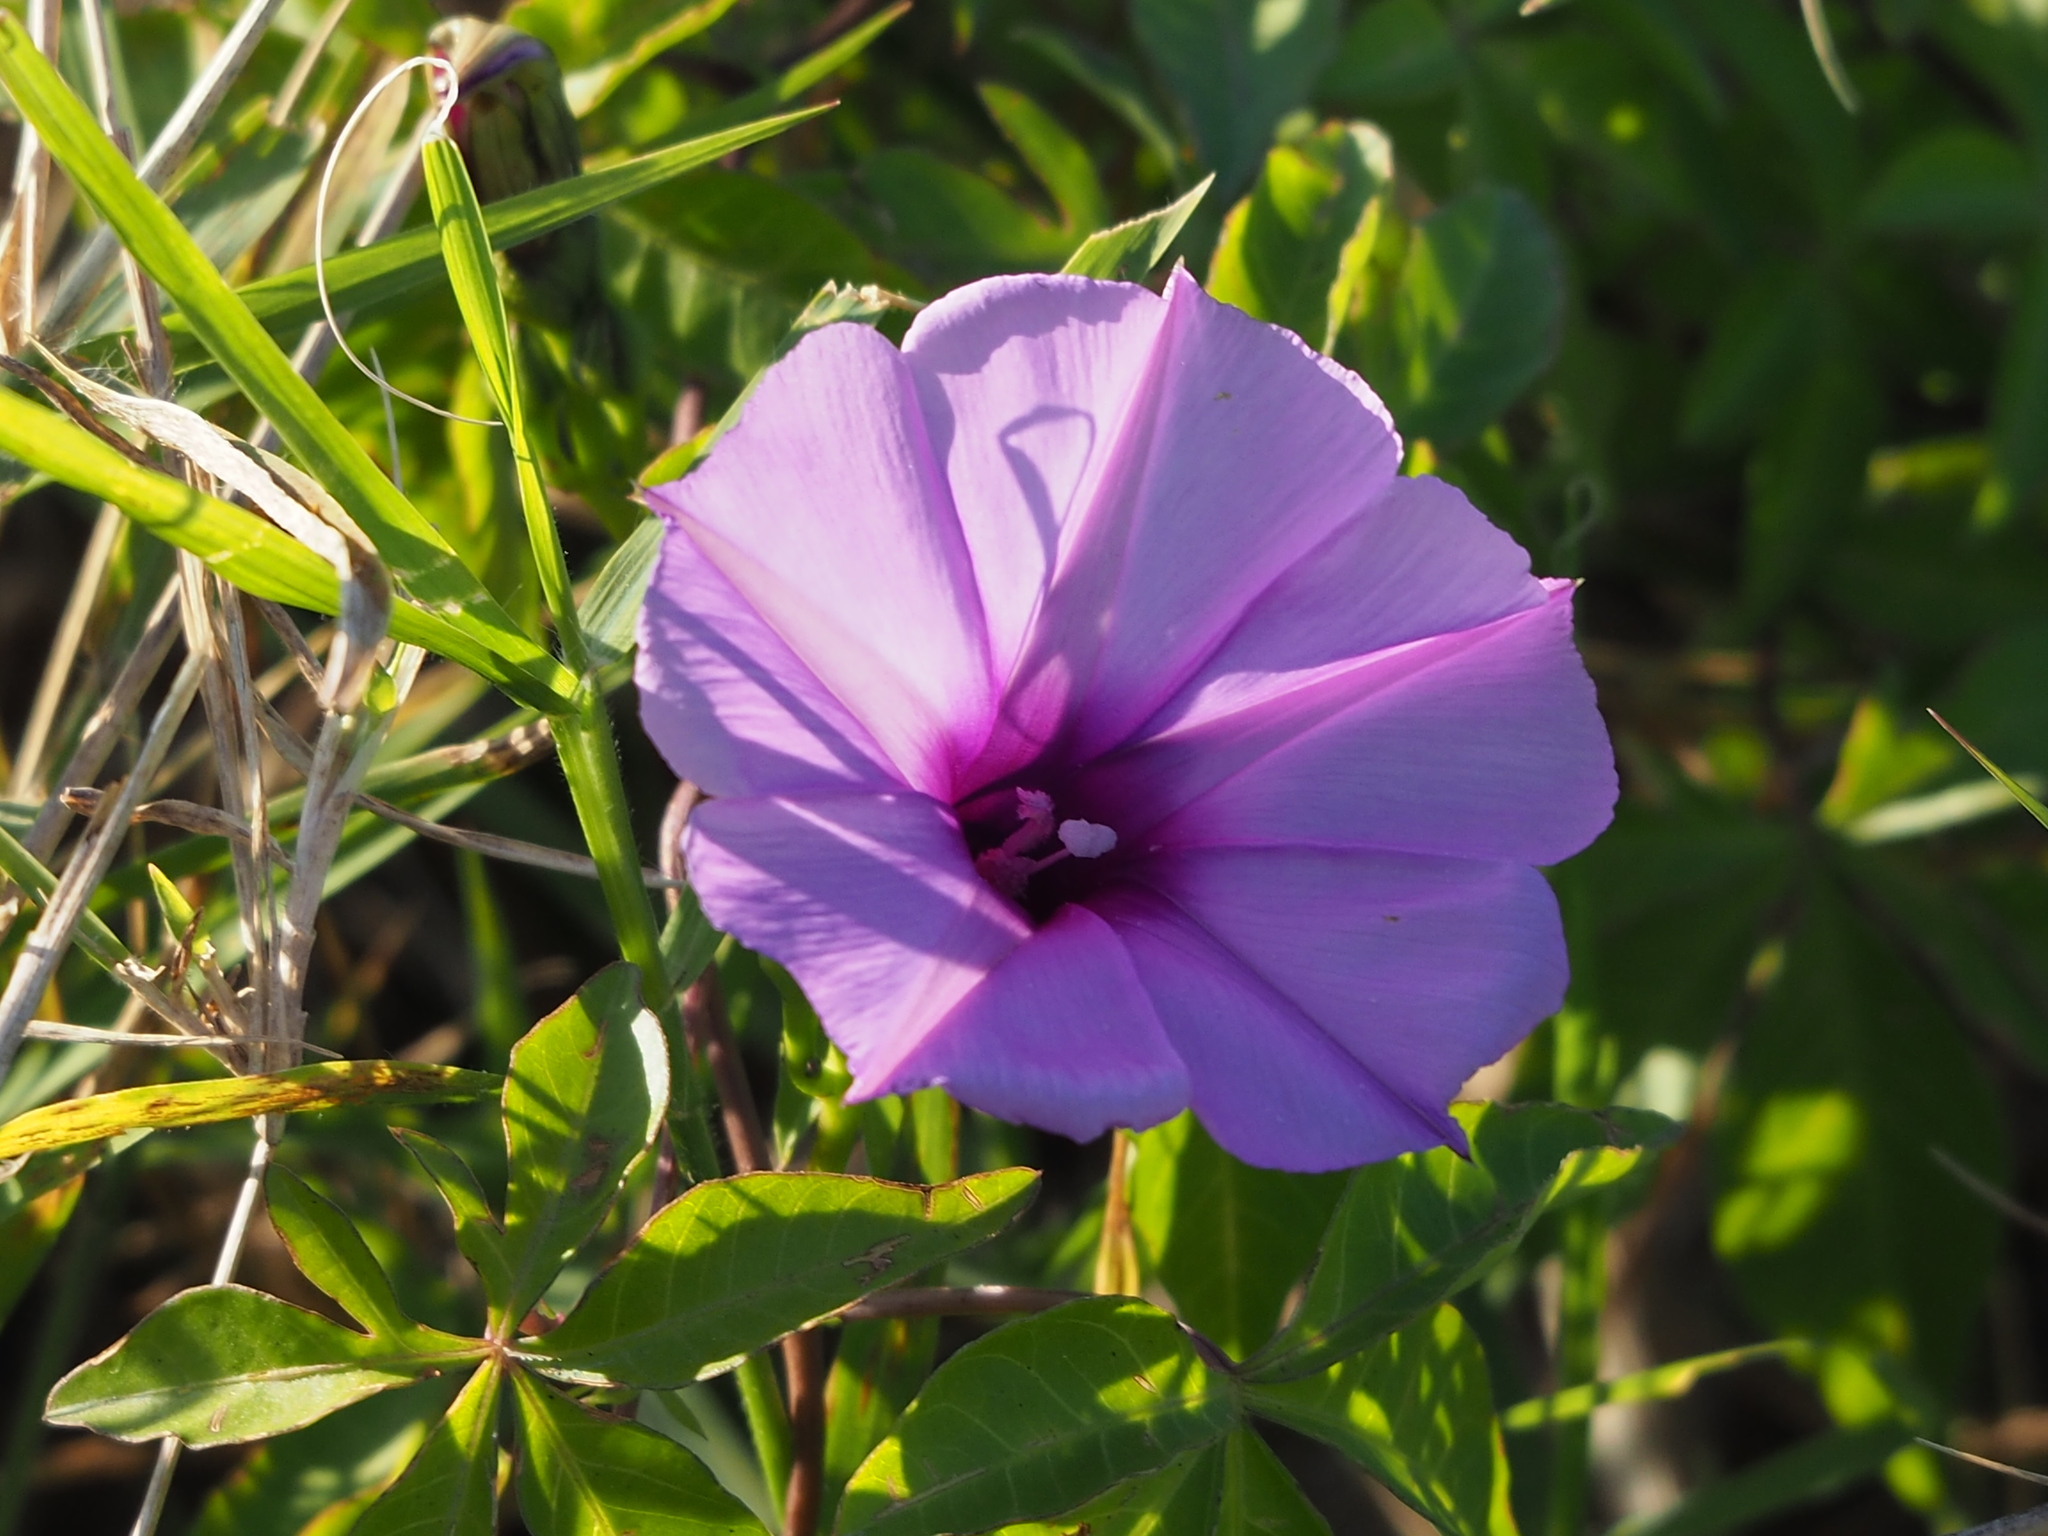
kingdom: Plantae
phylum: Tracheophyta
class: Magnoliopsida
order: Solanales
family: Convolvulaceae
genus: Ipomoea
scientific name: Ipomoea cairica
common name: Mile a minute vine
